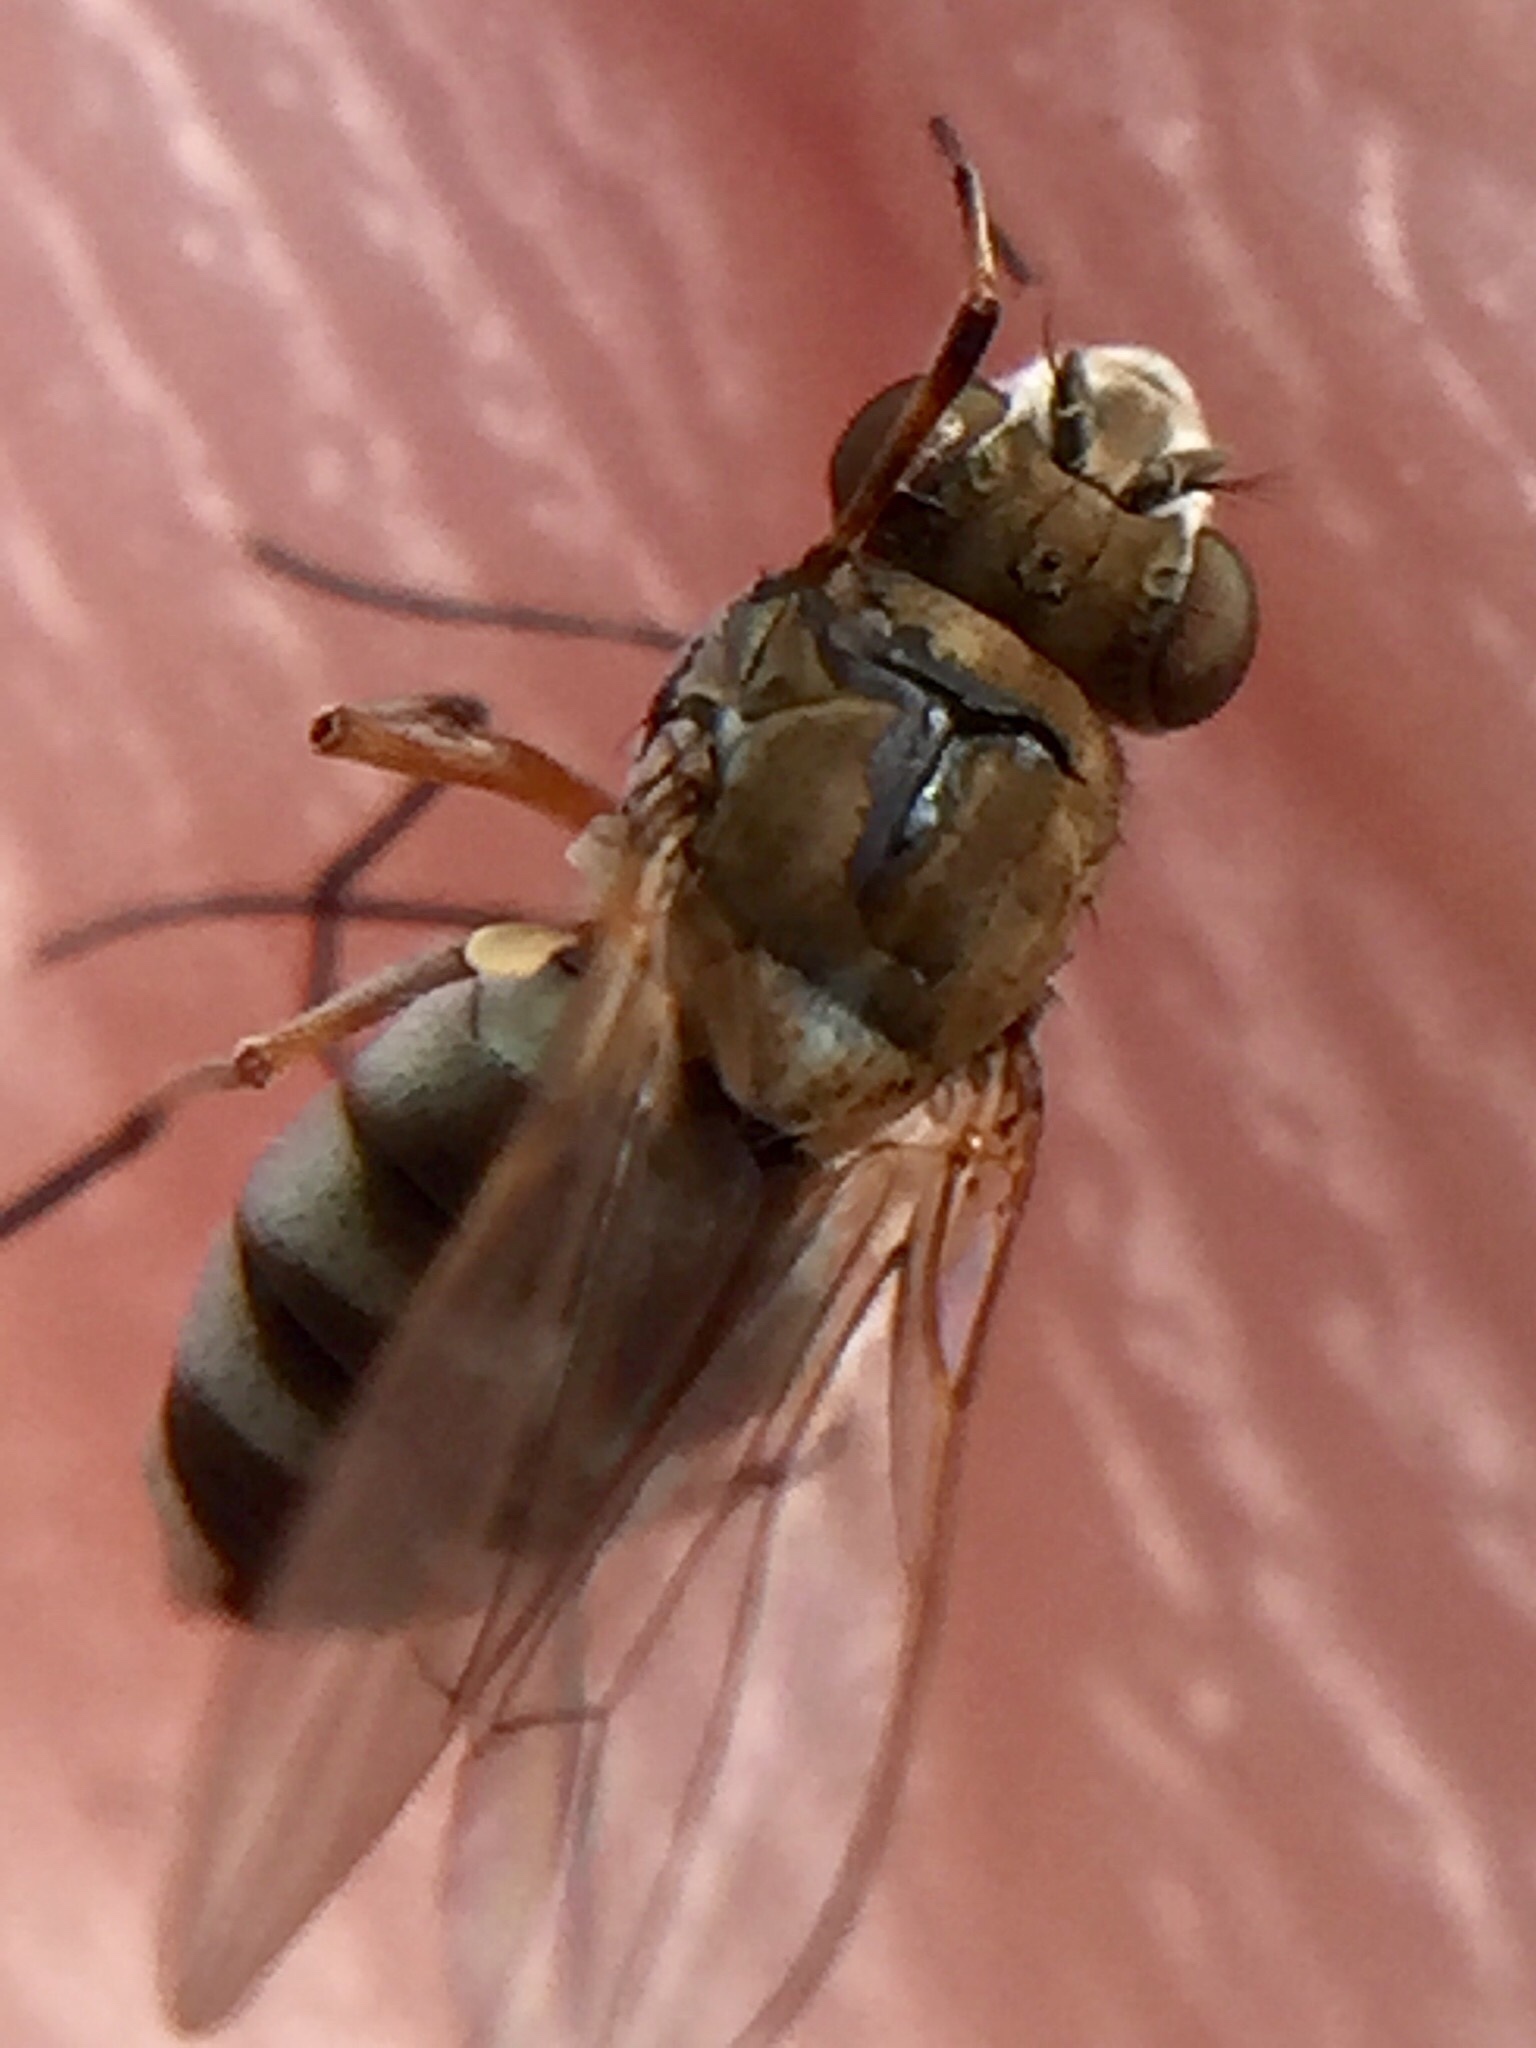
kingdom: Animalia
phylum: Arthropoda
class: Insecta
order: Diptera
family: Ephydridae
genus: Brachydeutera
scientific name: Brachydeutera sydneyensis
